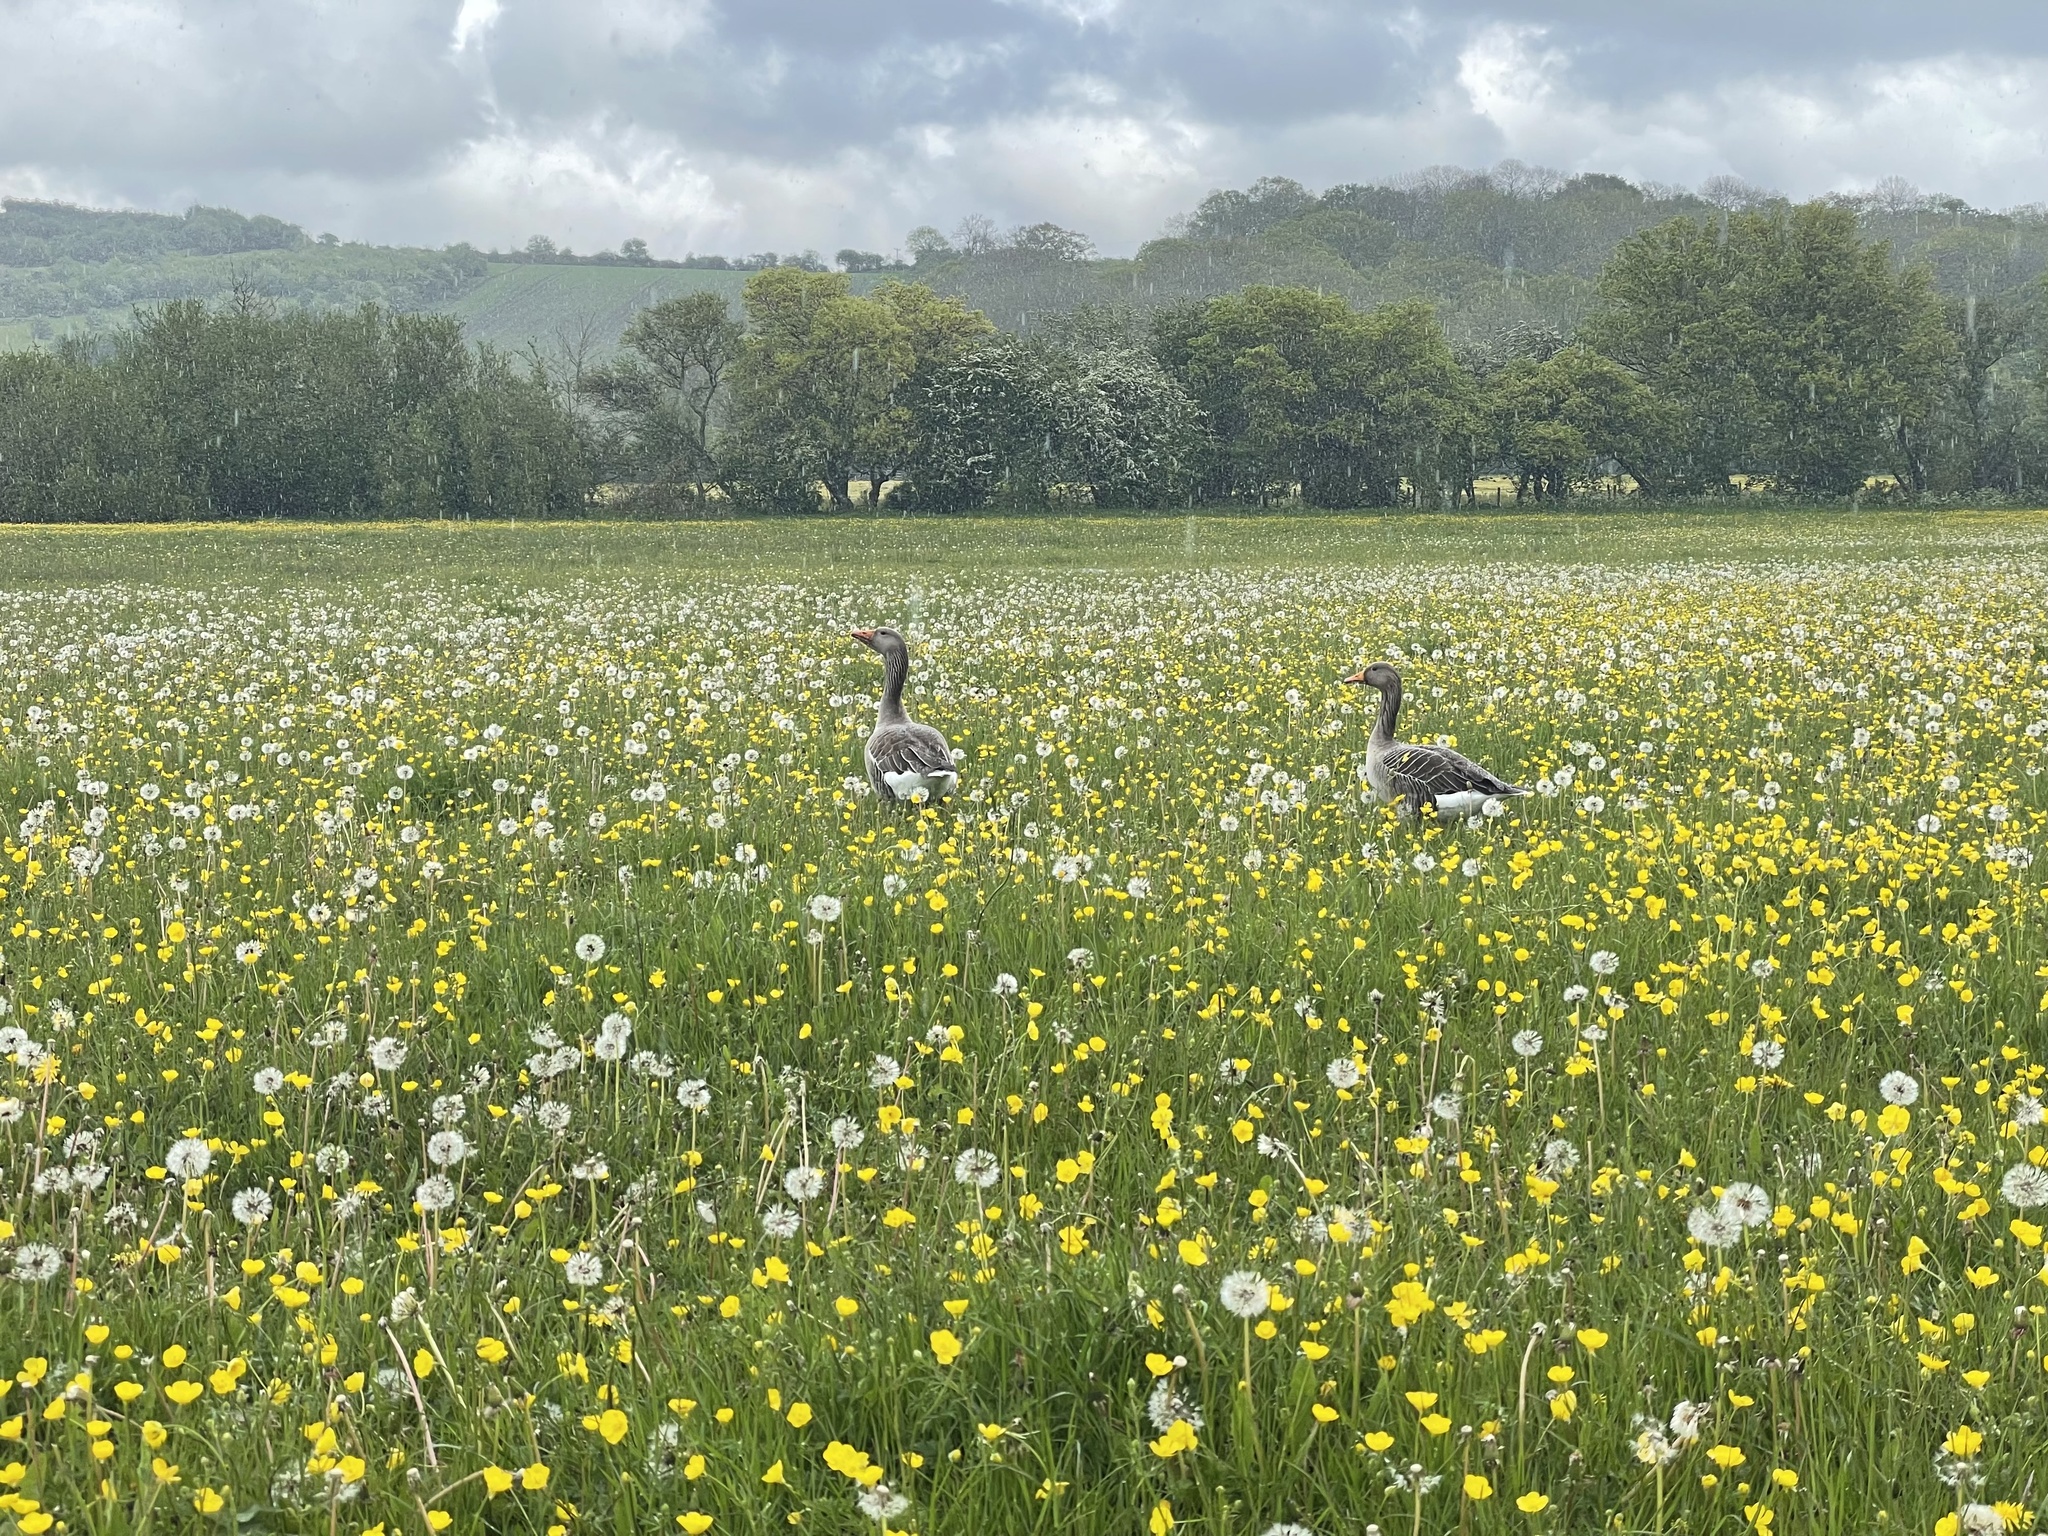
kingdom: Animalia
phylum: Chordata
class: Aves
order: Anseriformes
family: Anatidae
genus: Anser
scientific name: Anser anser
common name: Greylag goose
